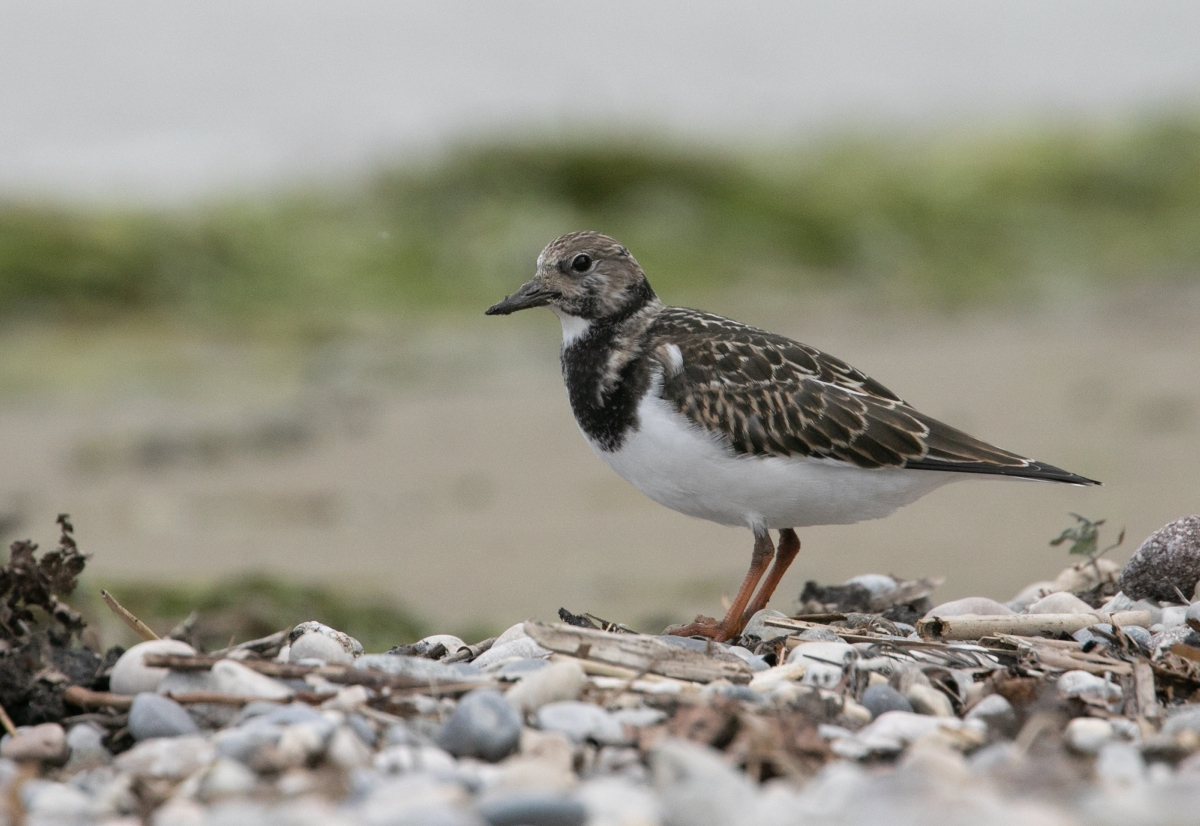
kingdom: Animalia
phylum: Chordata
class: Aves
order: Charadriiformes
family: Scolopacidae
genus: Arenaria
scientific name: Arenaria interpres
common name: Ruddy turnstone
